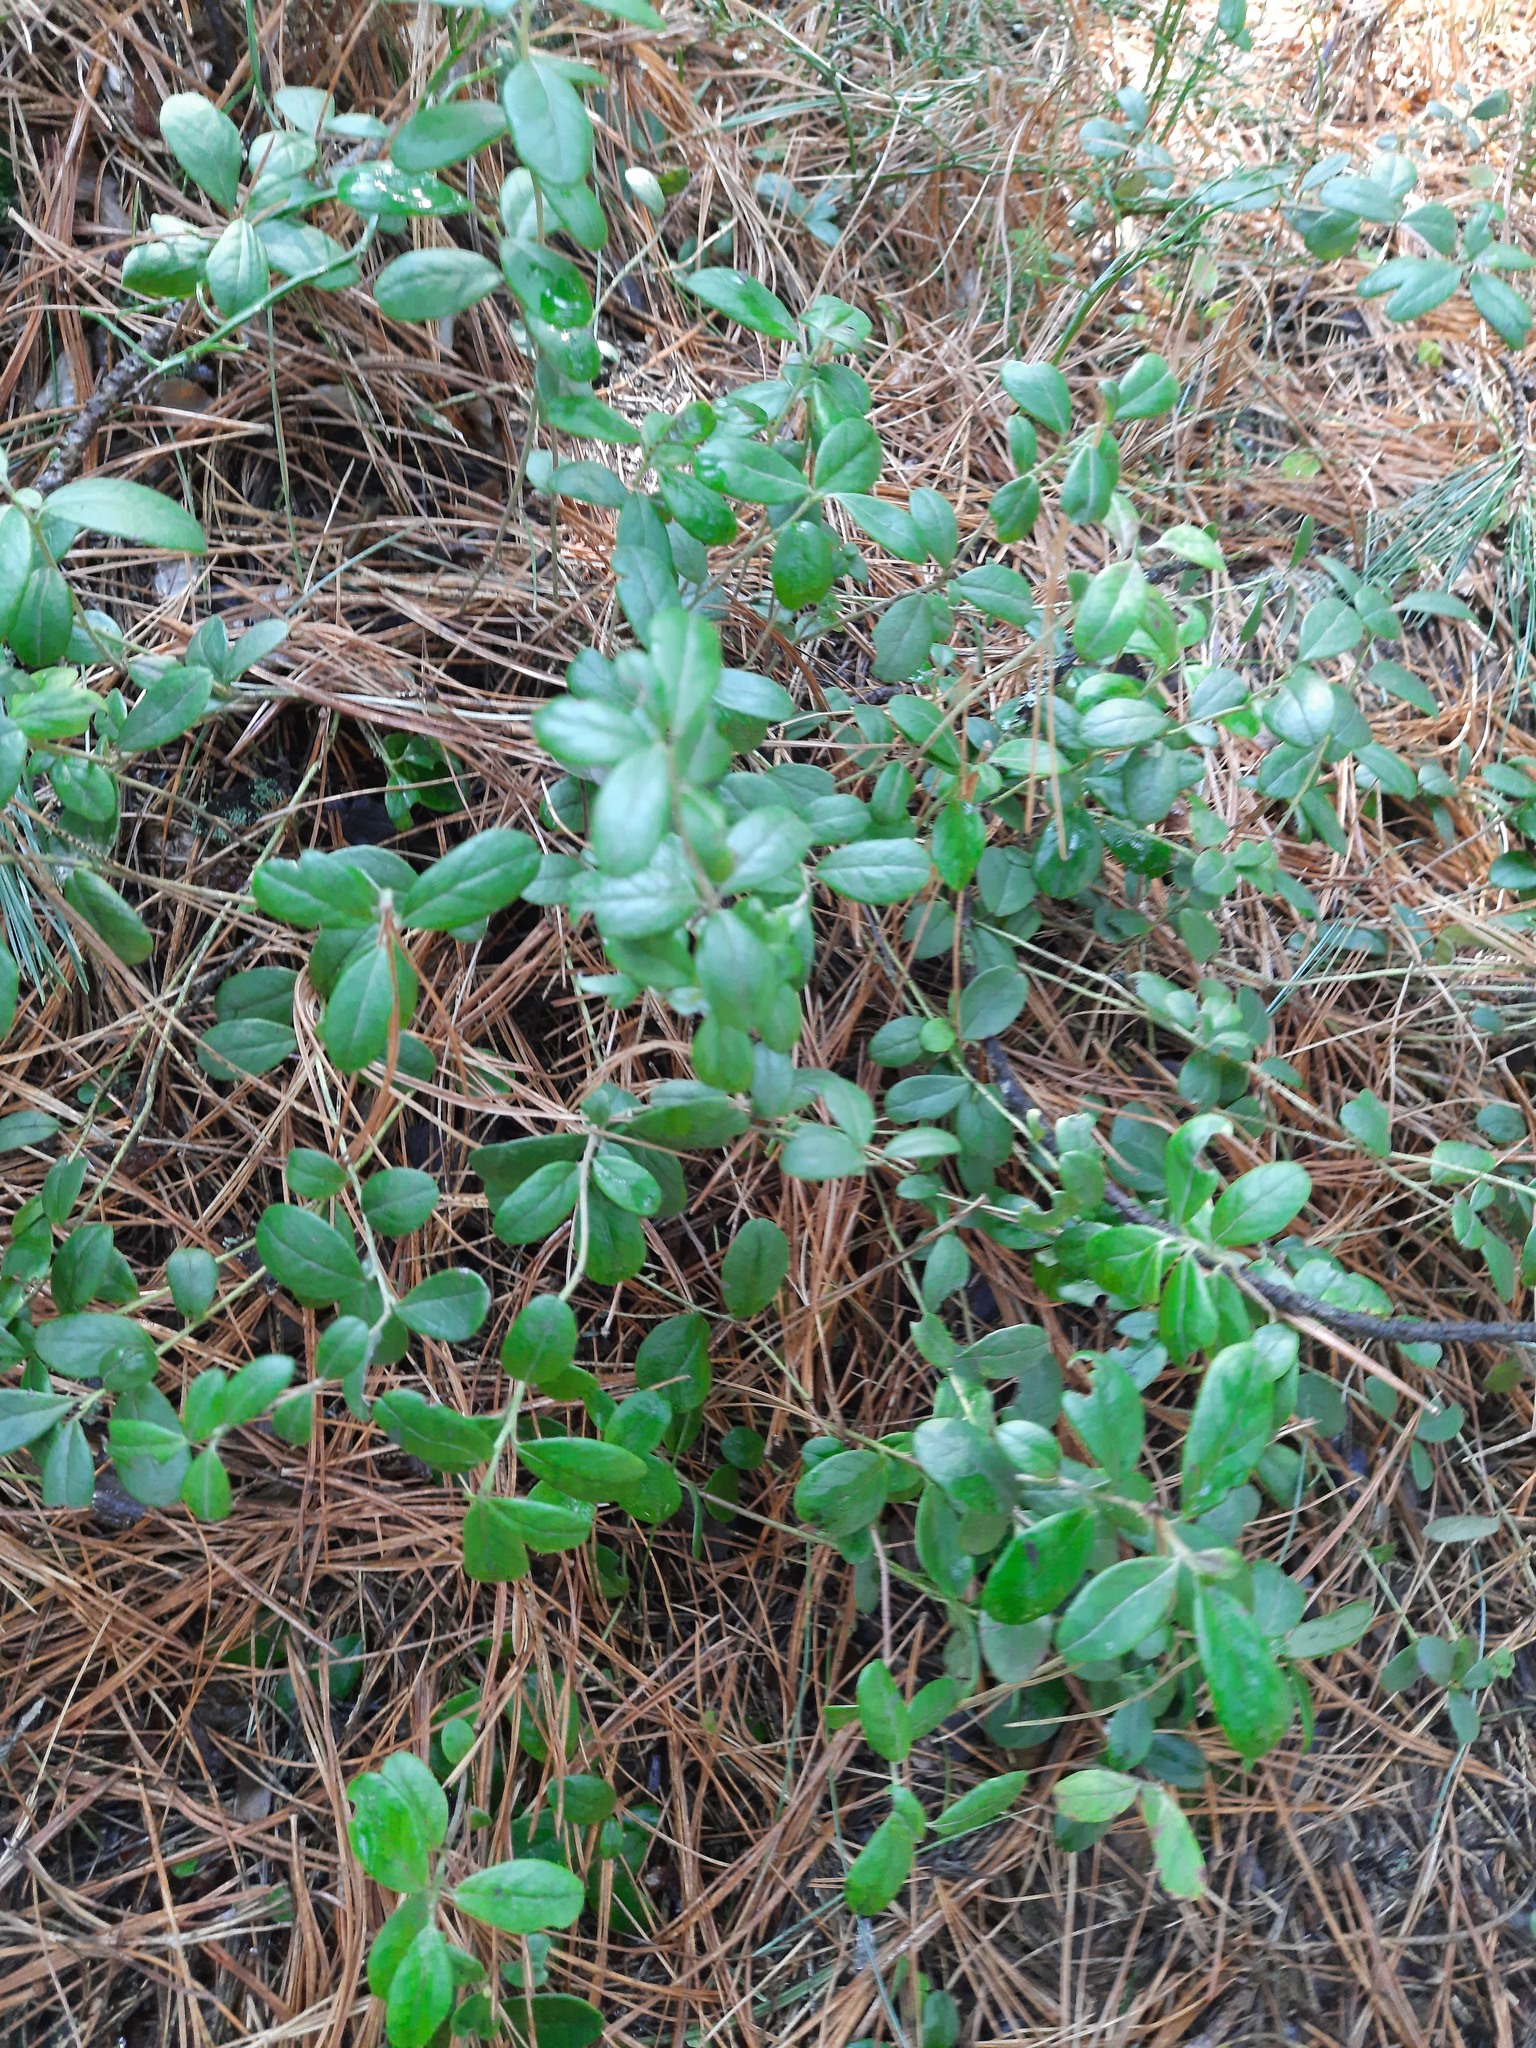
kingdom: Plantae
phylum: Tracheophyta
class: Magnoliopsida
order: Ericales
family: Ericaceae
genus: Vaccinium
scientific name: Vaccinium vitis-idaea
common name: Cowberry
